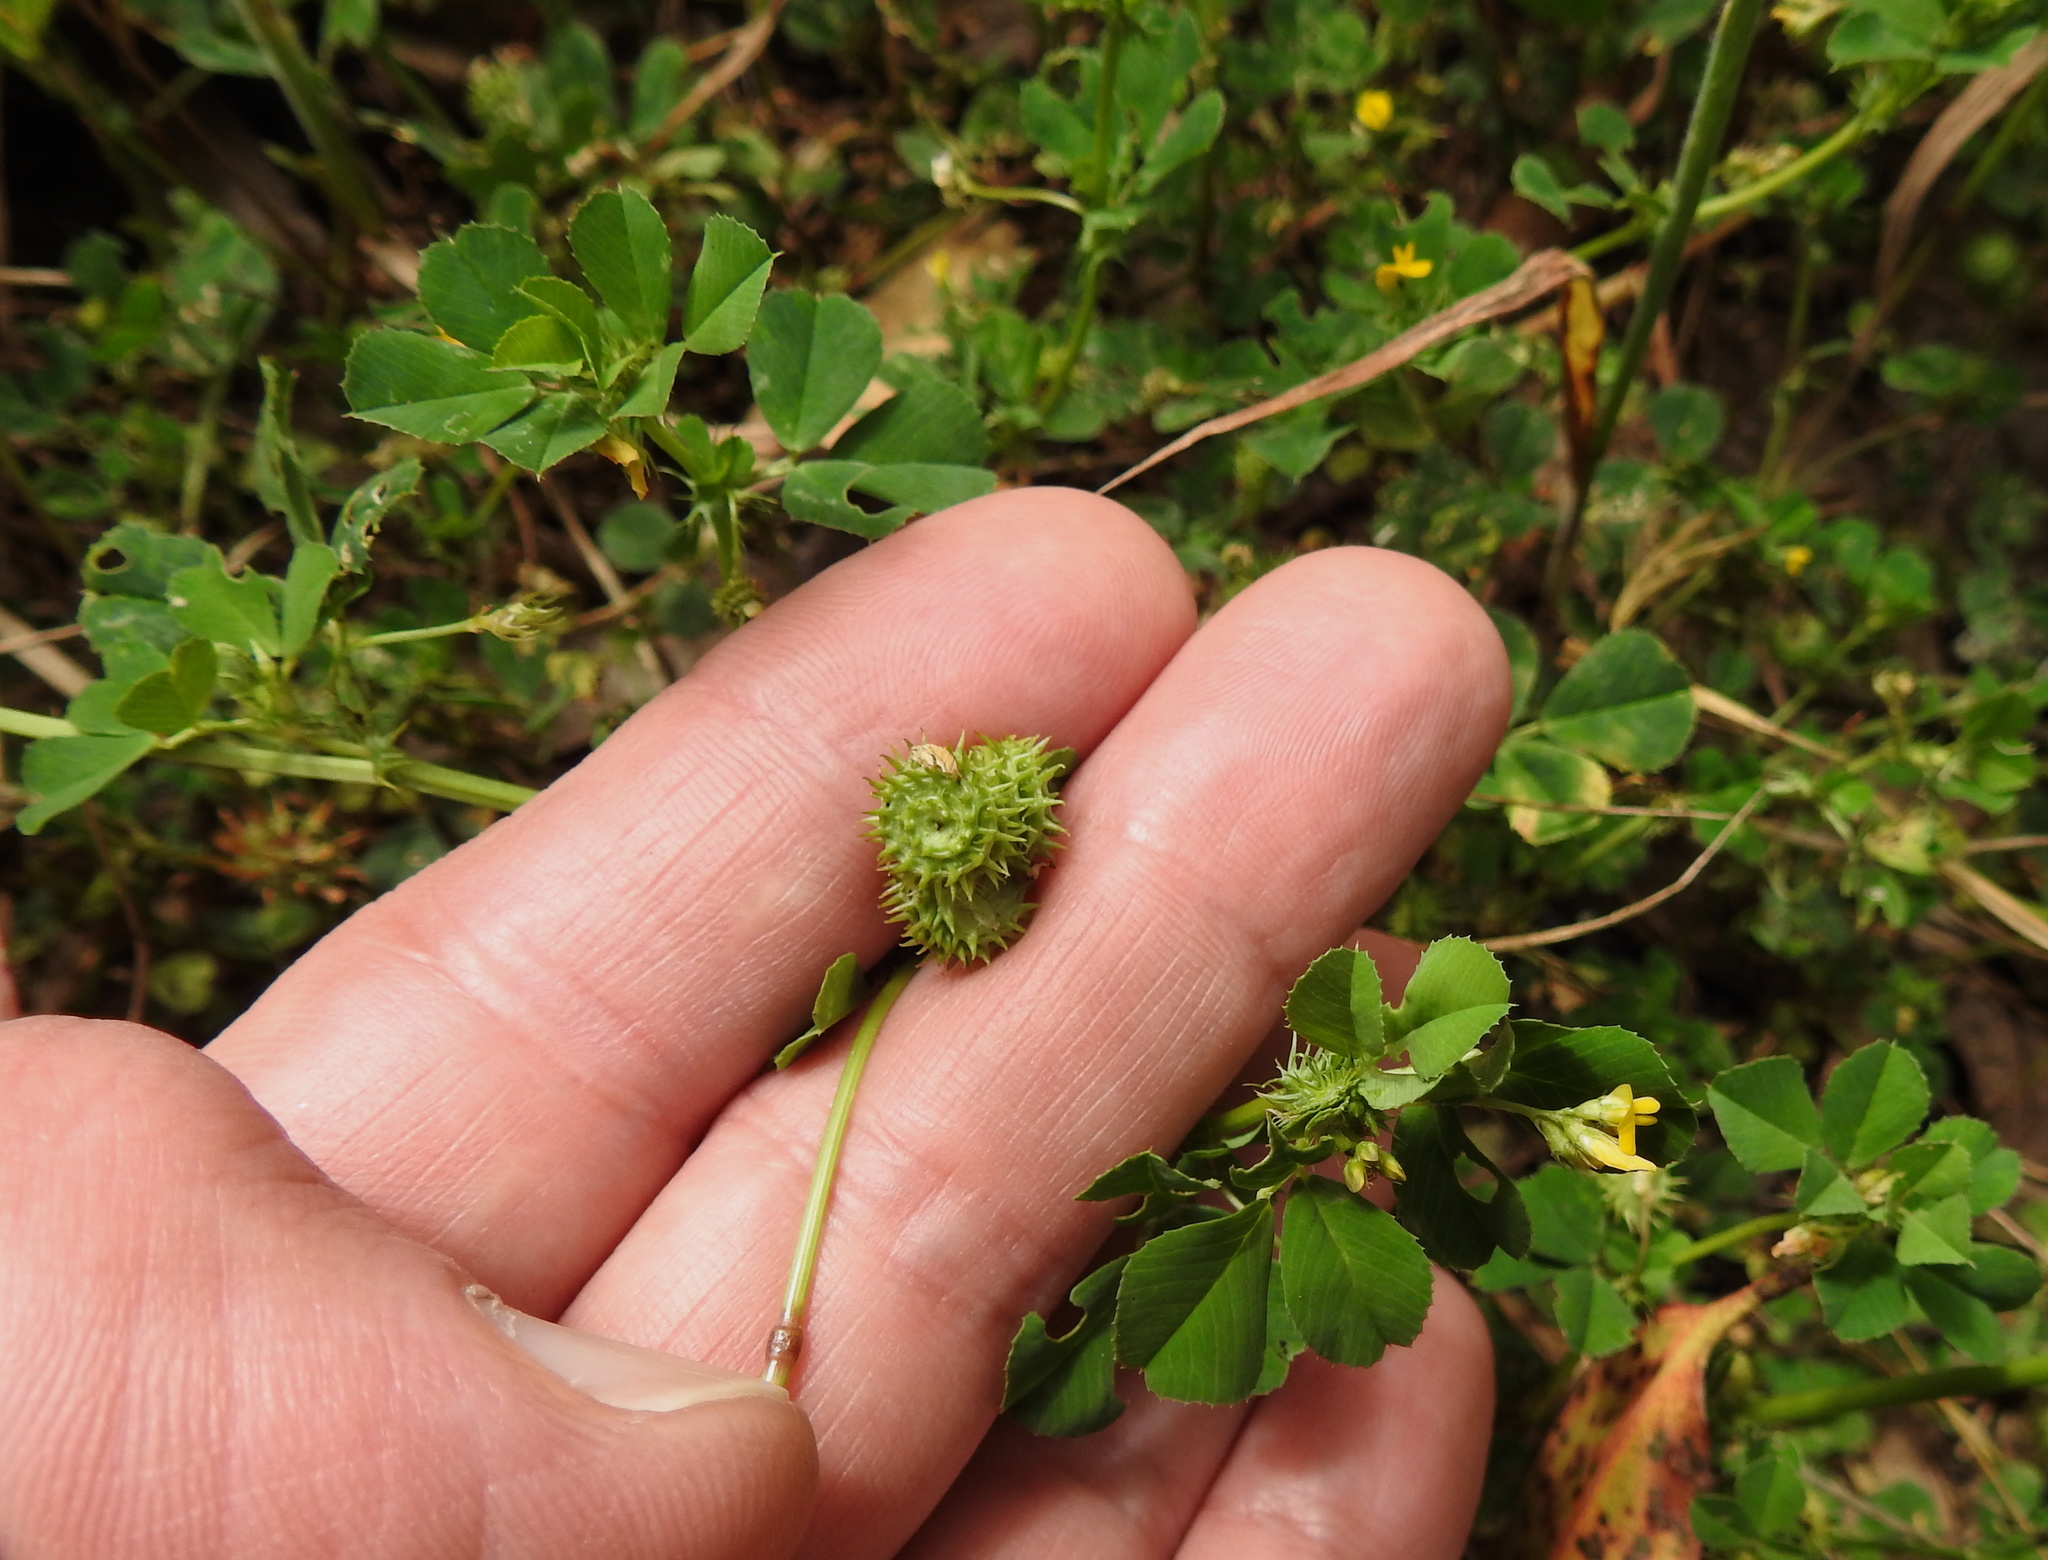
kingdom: Plantae
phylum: Tracheophyta
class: Magnoliopsida
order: Fabales
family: Fabaceae
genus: Medicago
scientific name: Medicago polymorpha
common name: Burclover
